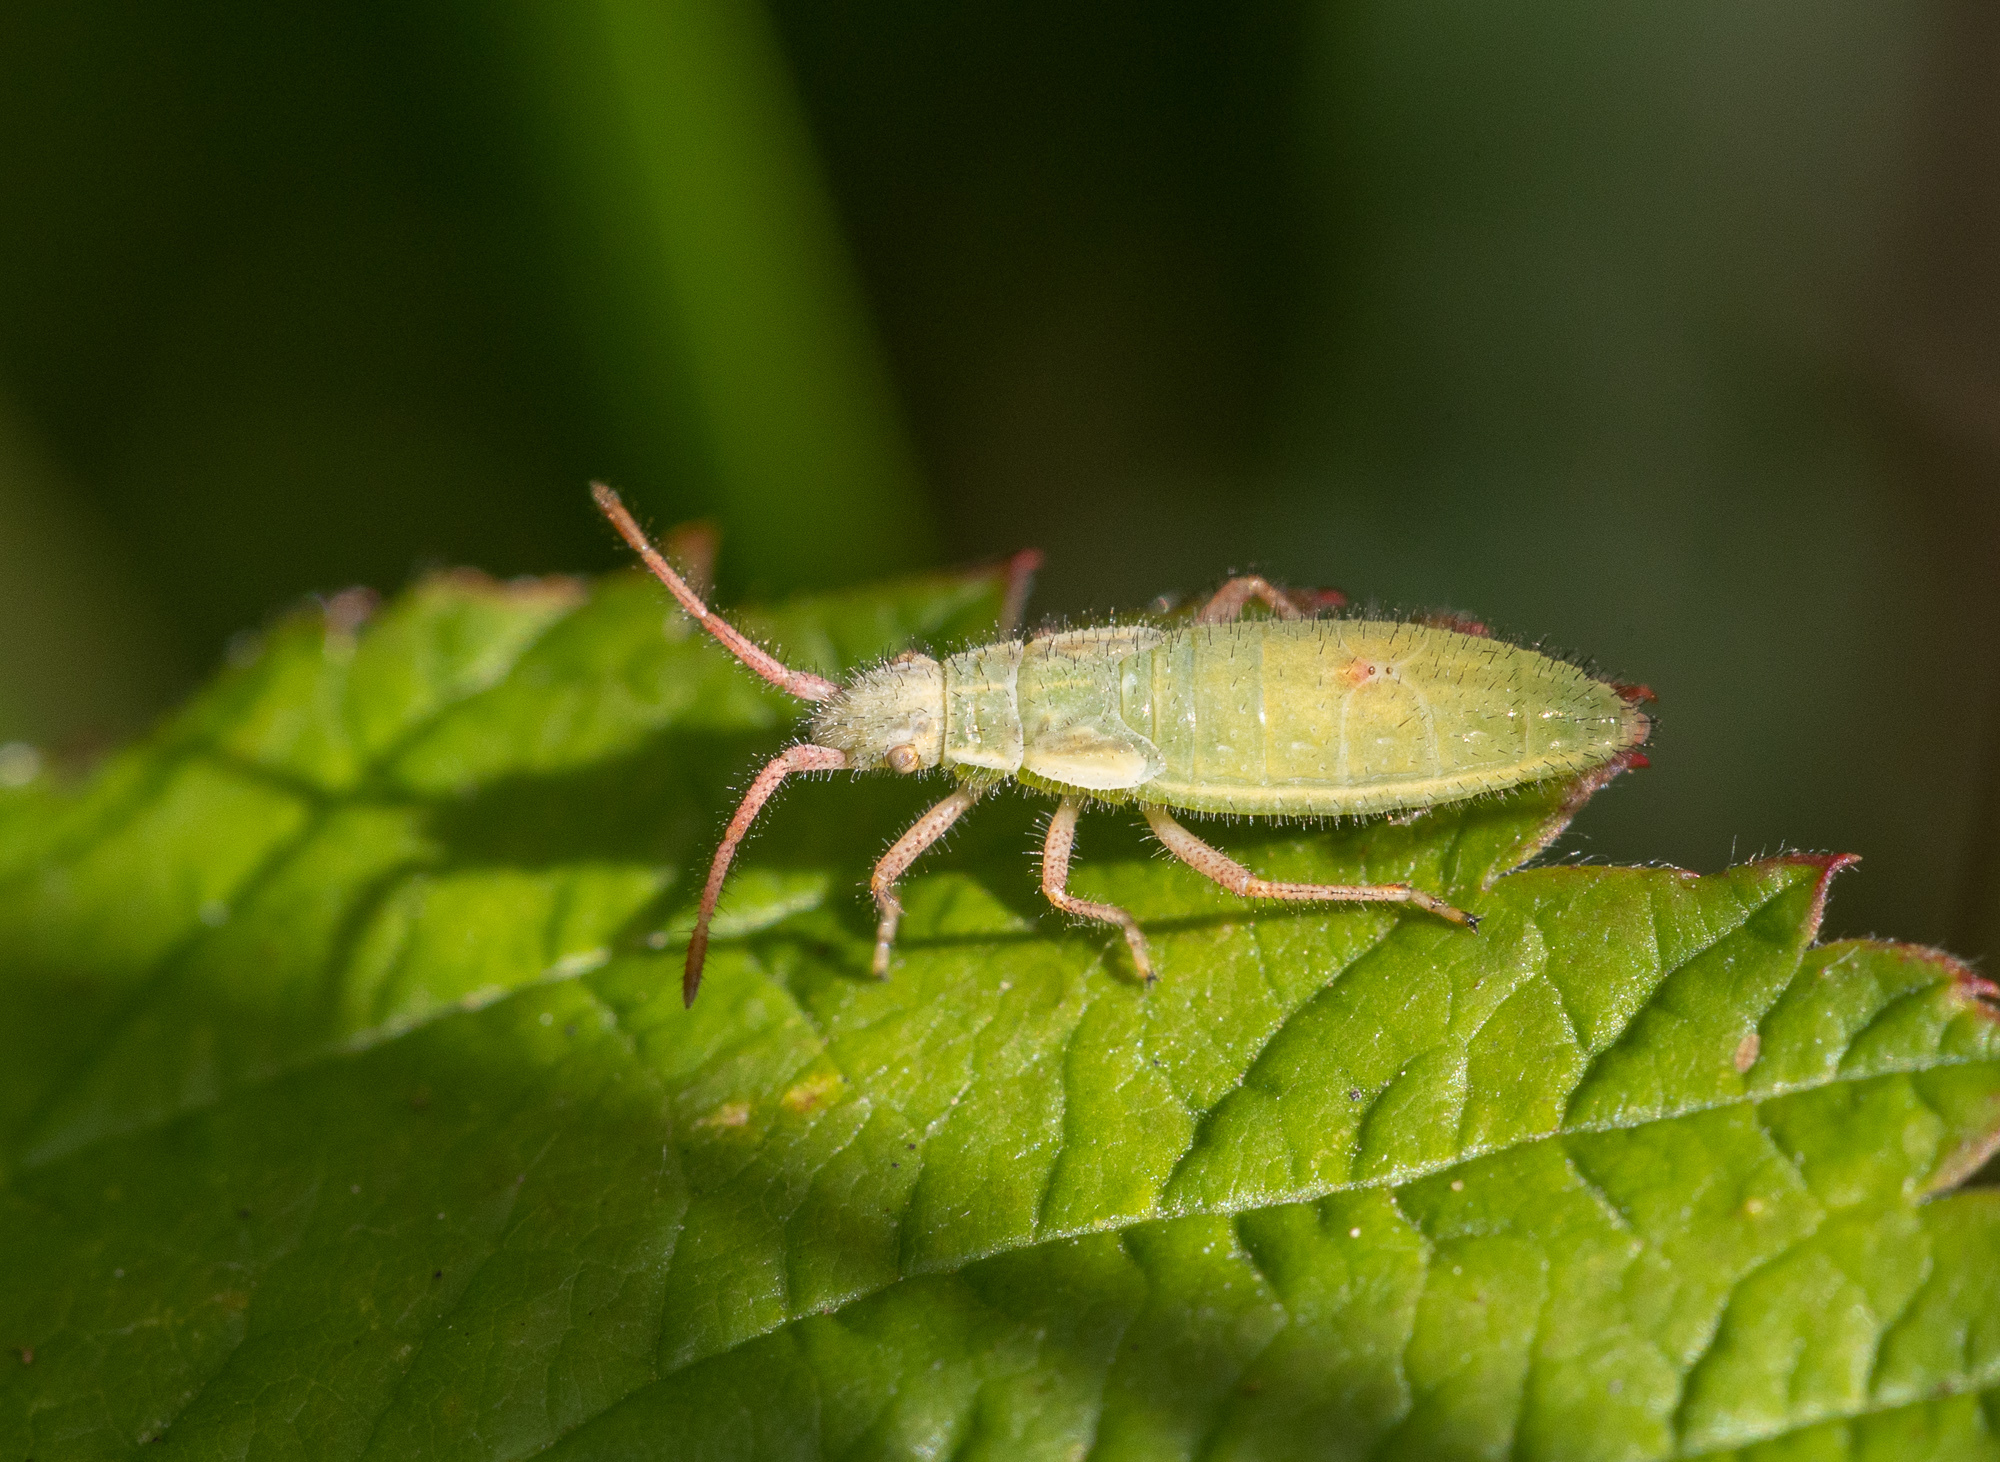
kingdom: Animalia
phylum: Arthropoda
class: Insecta
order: Hemiptera
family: Rhopalidae
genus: Myrmus
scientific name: Myrmus miriformis
